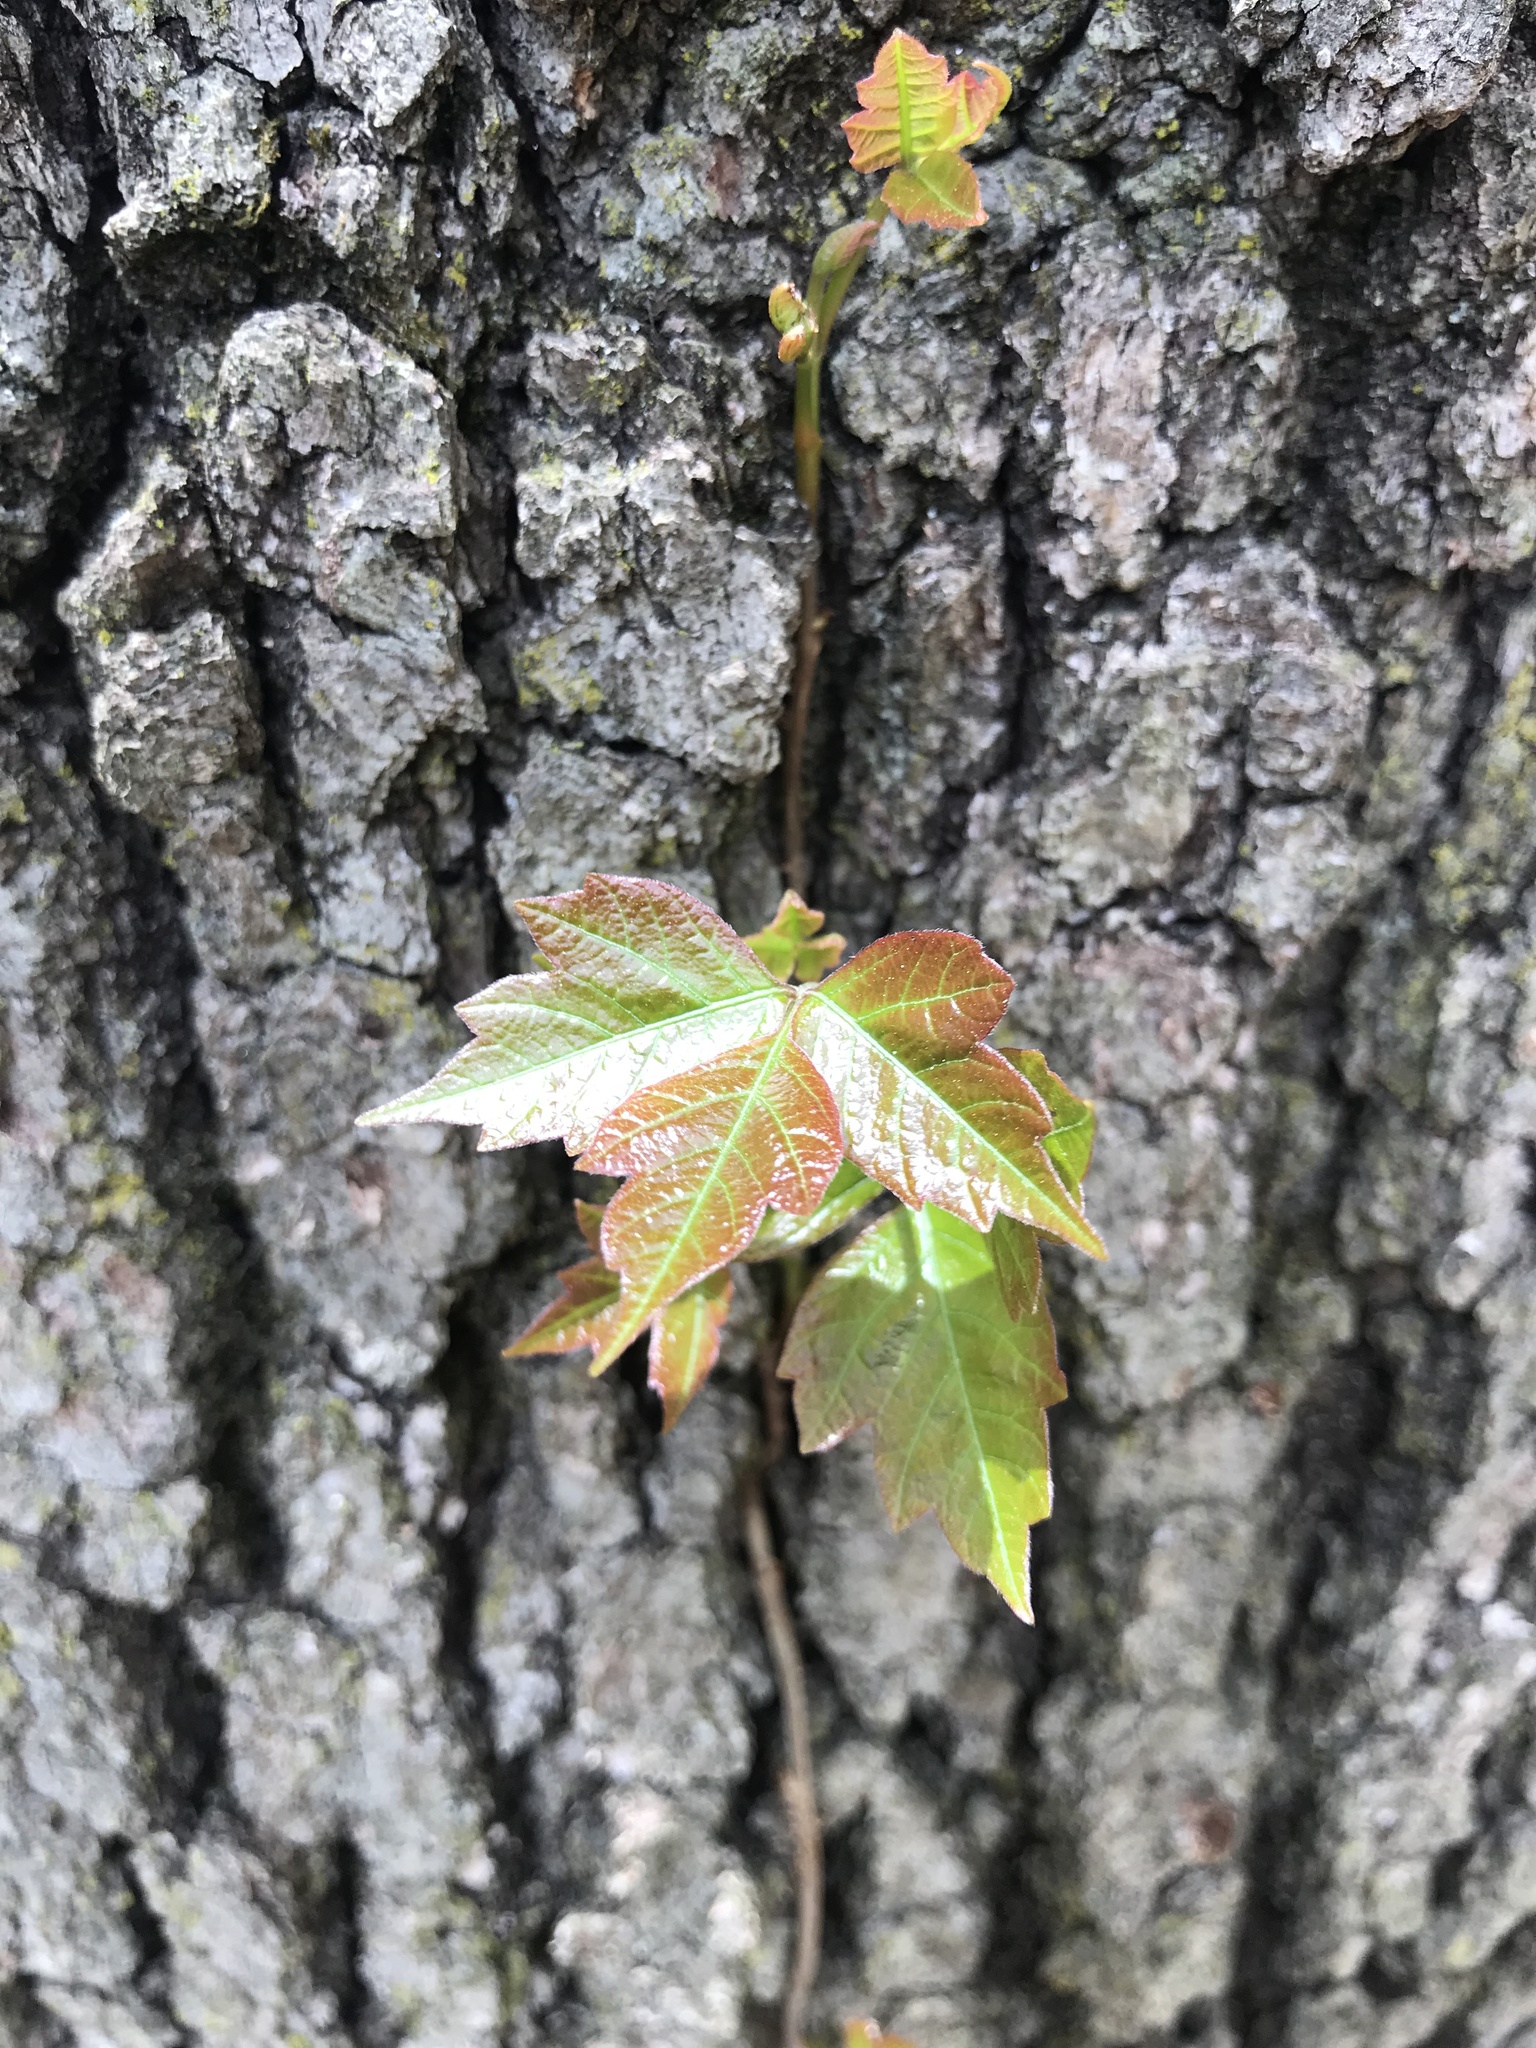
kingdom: Plantae
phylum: Tracheophyta
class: Magnoliopsida
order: Sapindales
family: Anacardiaceae
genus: Toxicodendron
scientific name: Toxicodendron radicans
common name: Poison ivy
